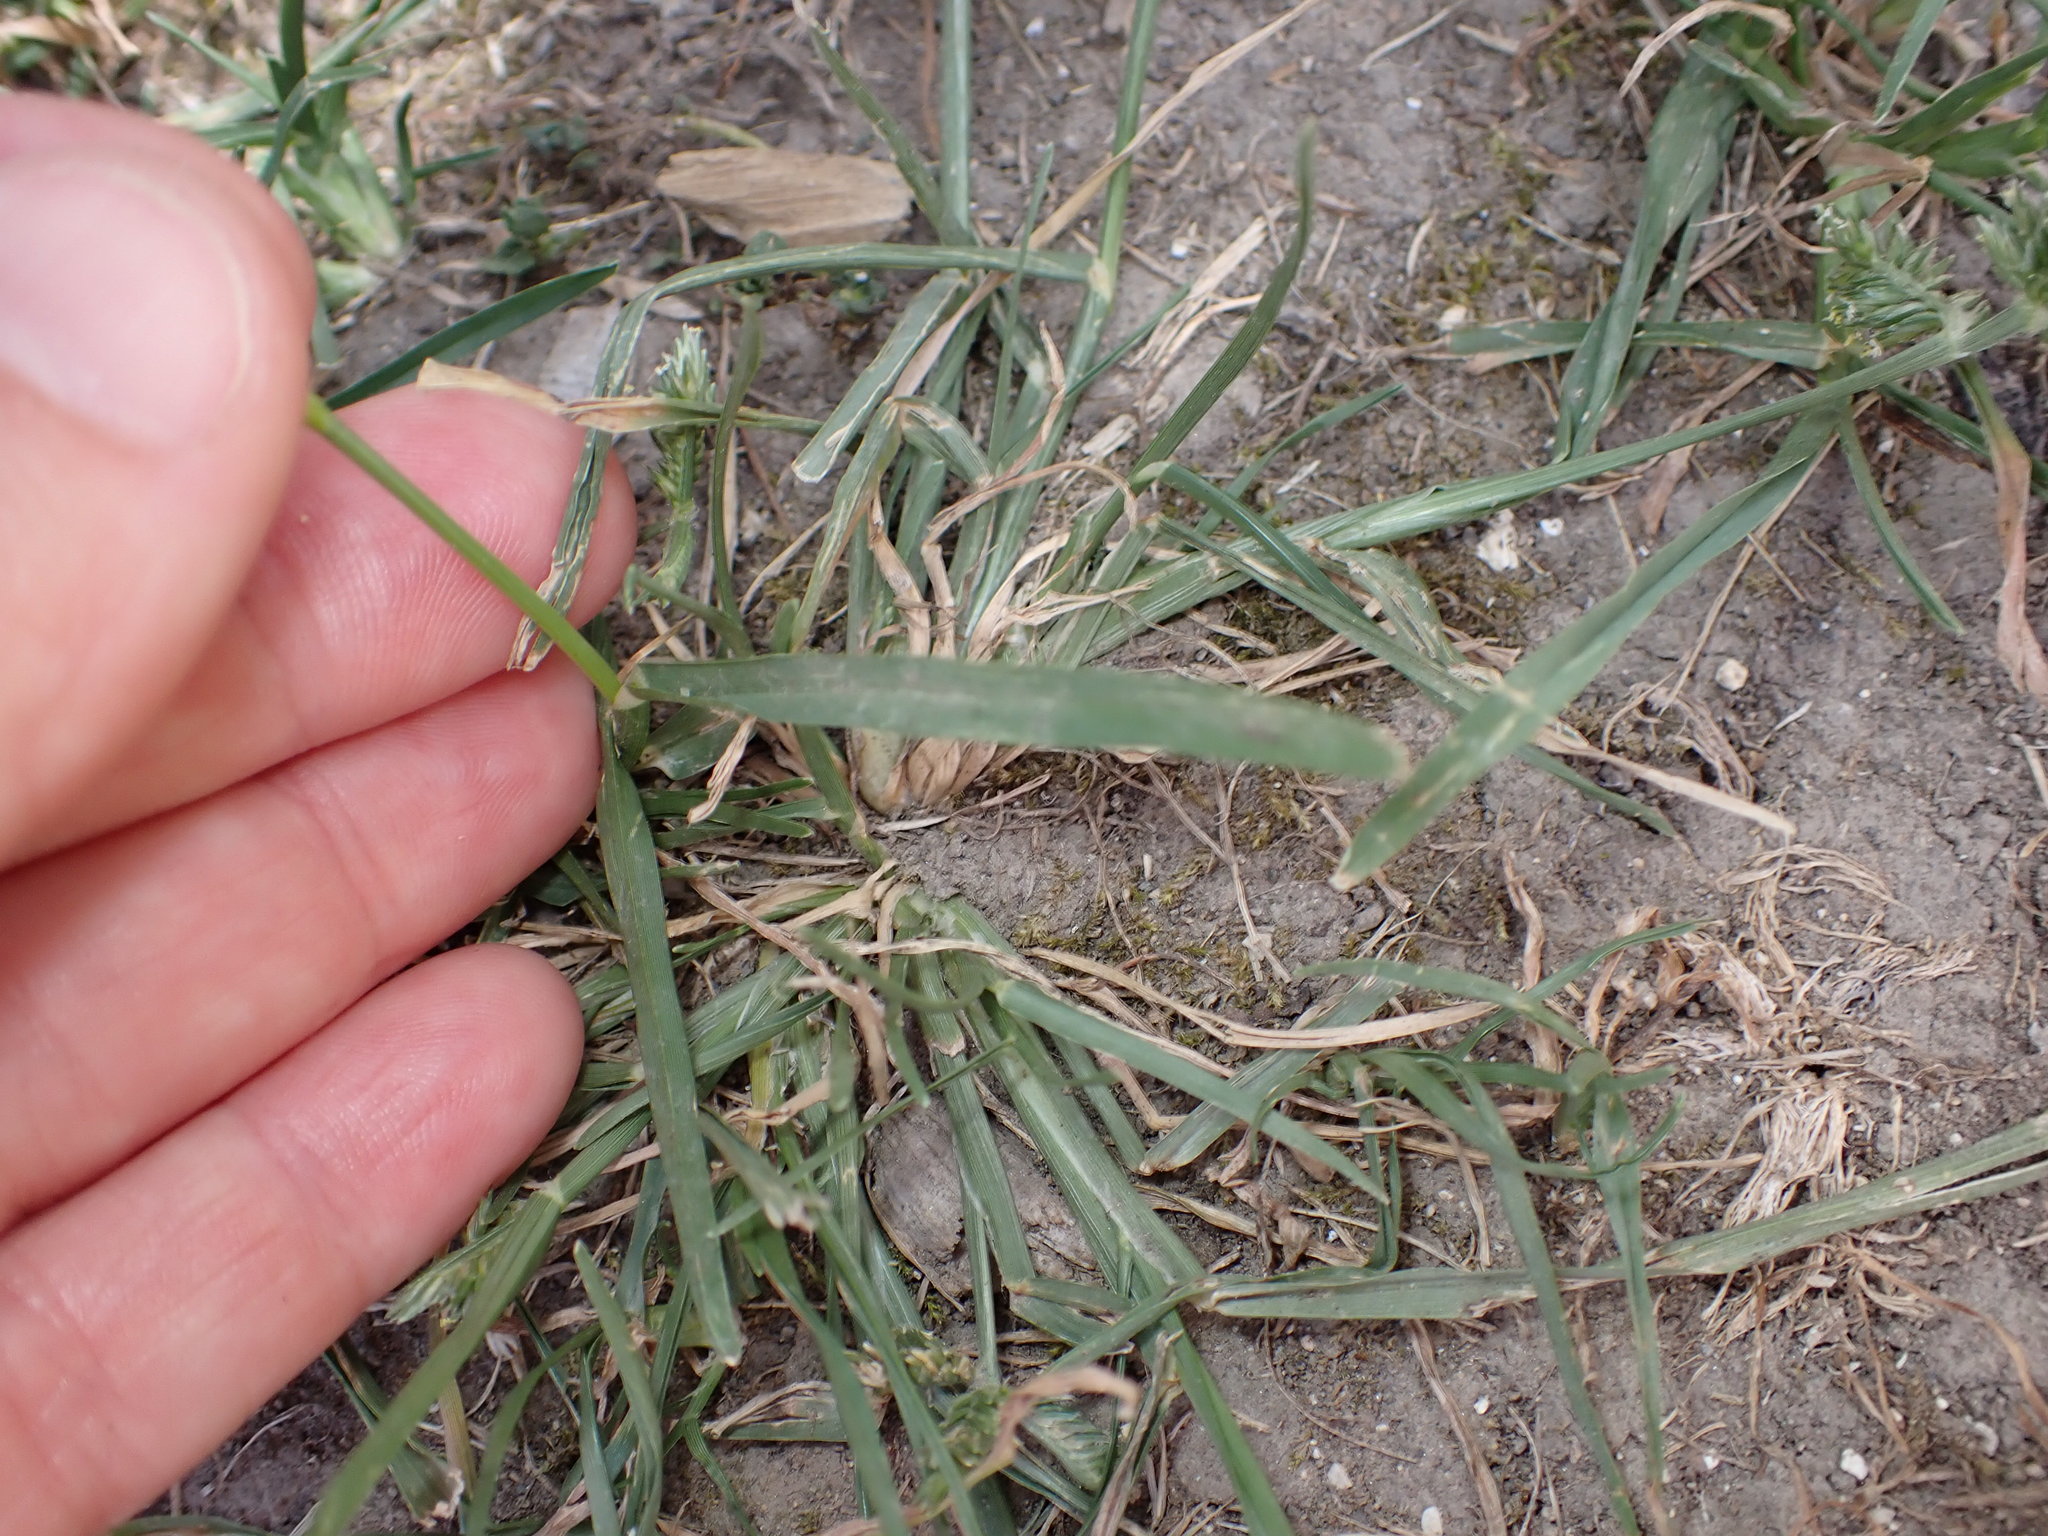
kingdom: Plantae
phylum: Tracheophyta
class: Liliopsida
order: Poales
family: Poaceae
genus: Eleusine
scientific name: Eleusine tristachya
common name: American yard-grass
